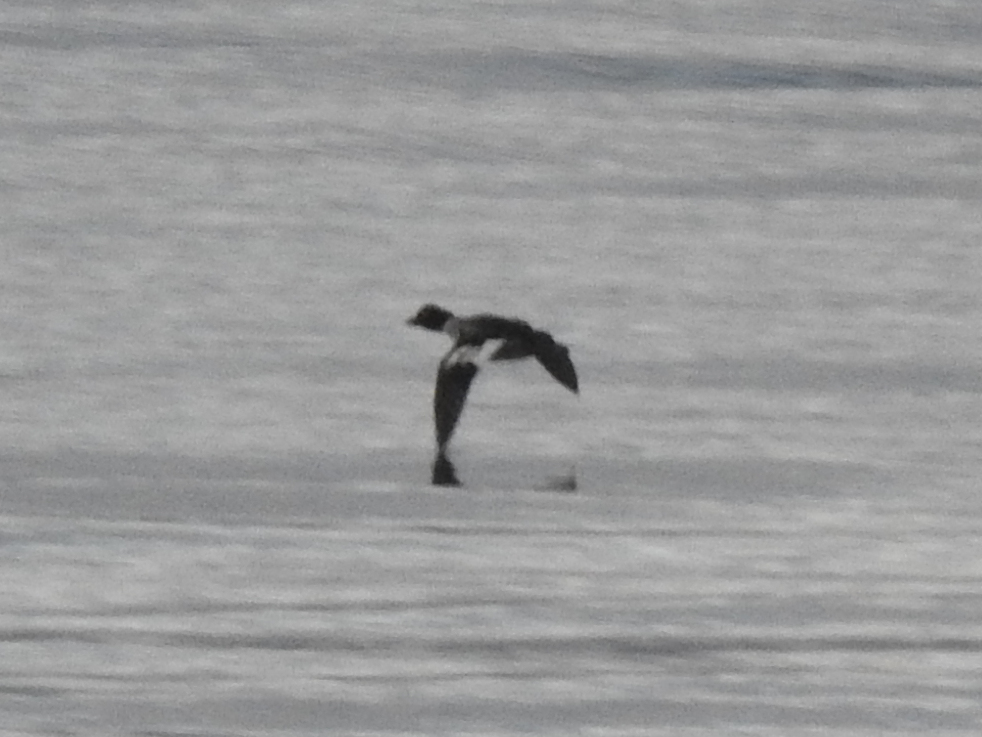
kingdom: Animalia
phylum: Chordata
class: Aves
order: Anseriformes
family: Anatidae
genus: Bucephala
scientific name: Bucephala clangula
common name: Common goldeneye
